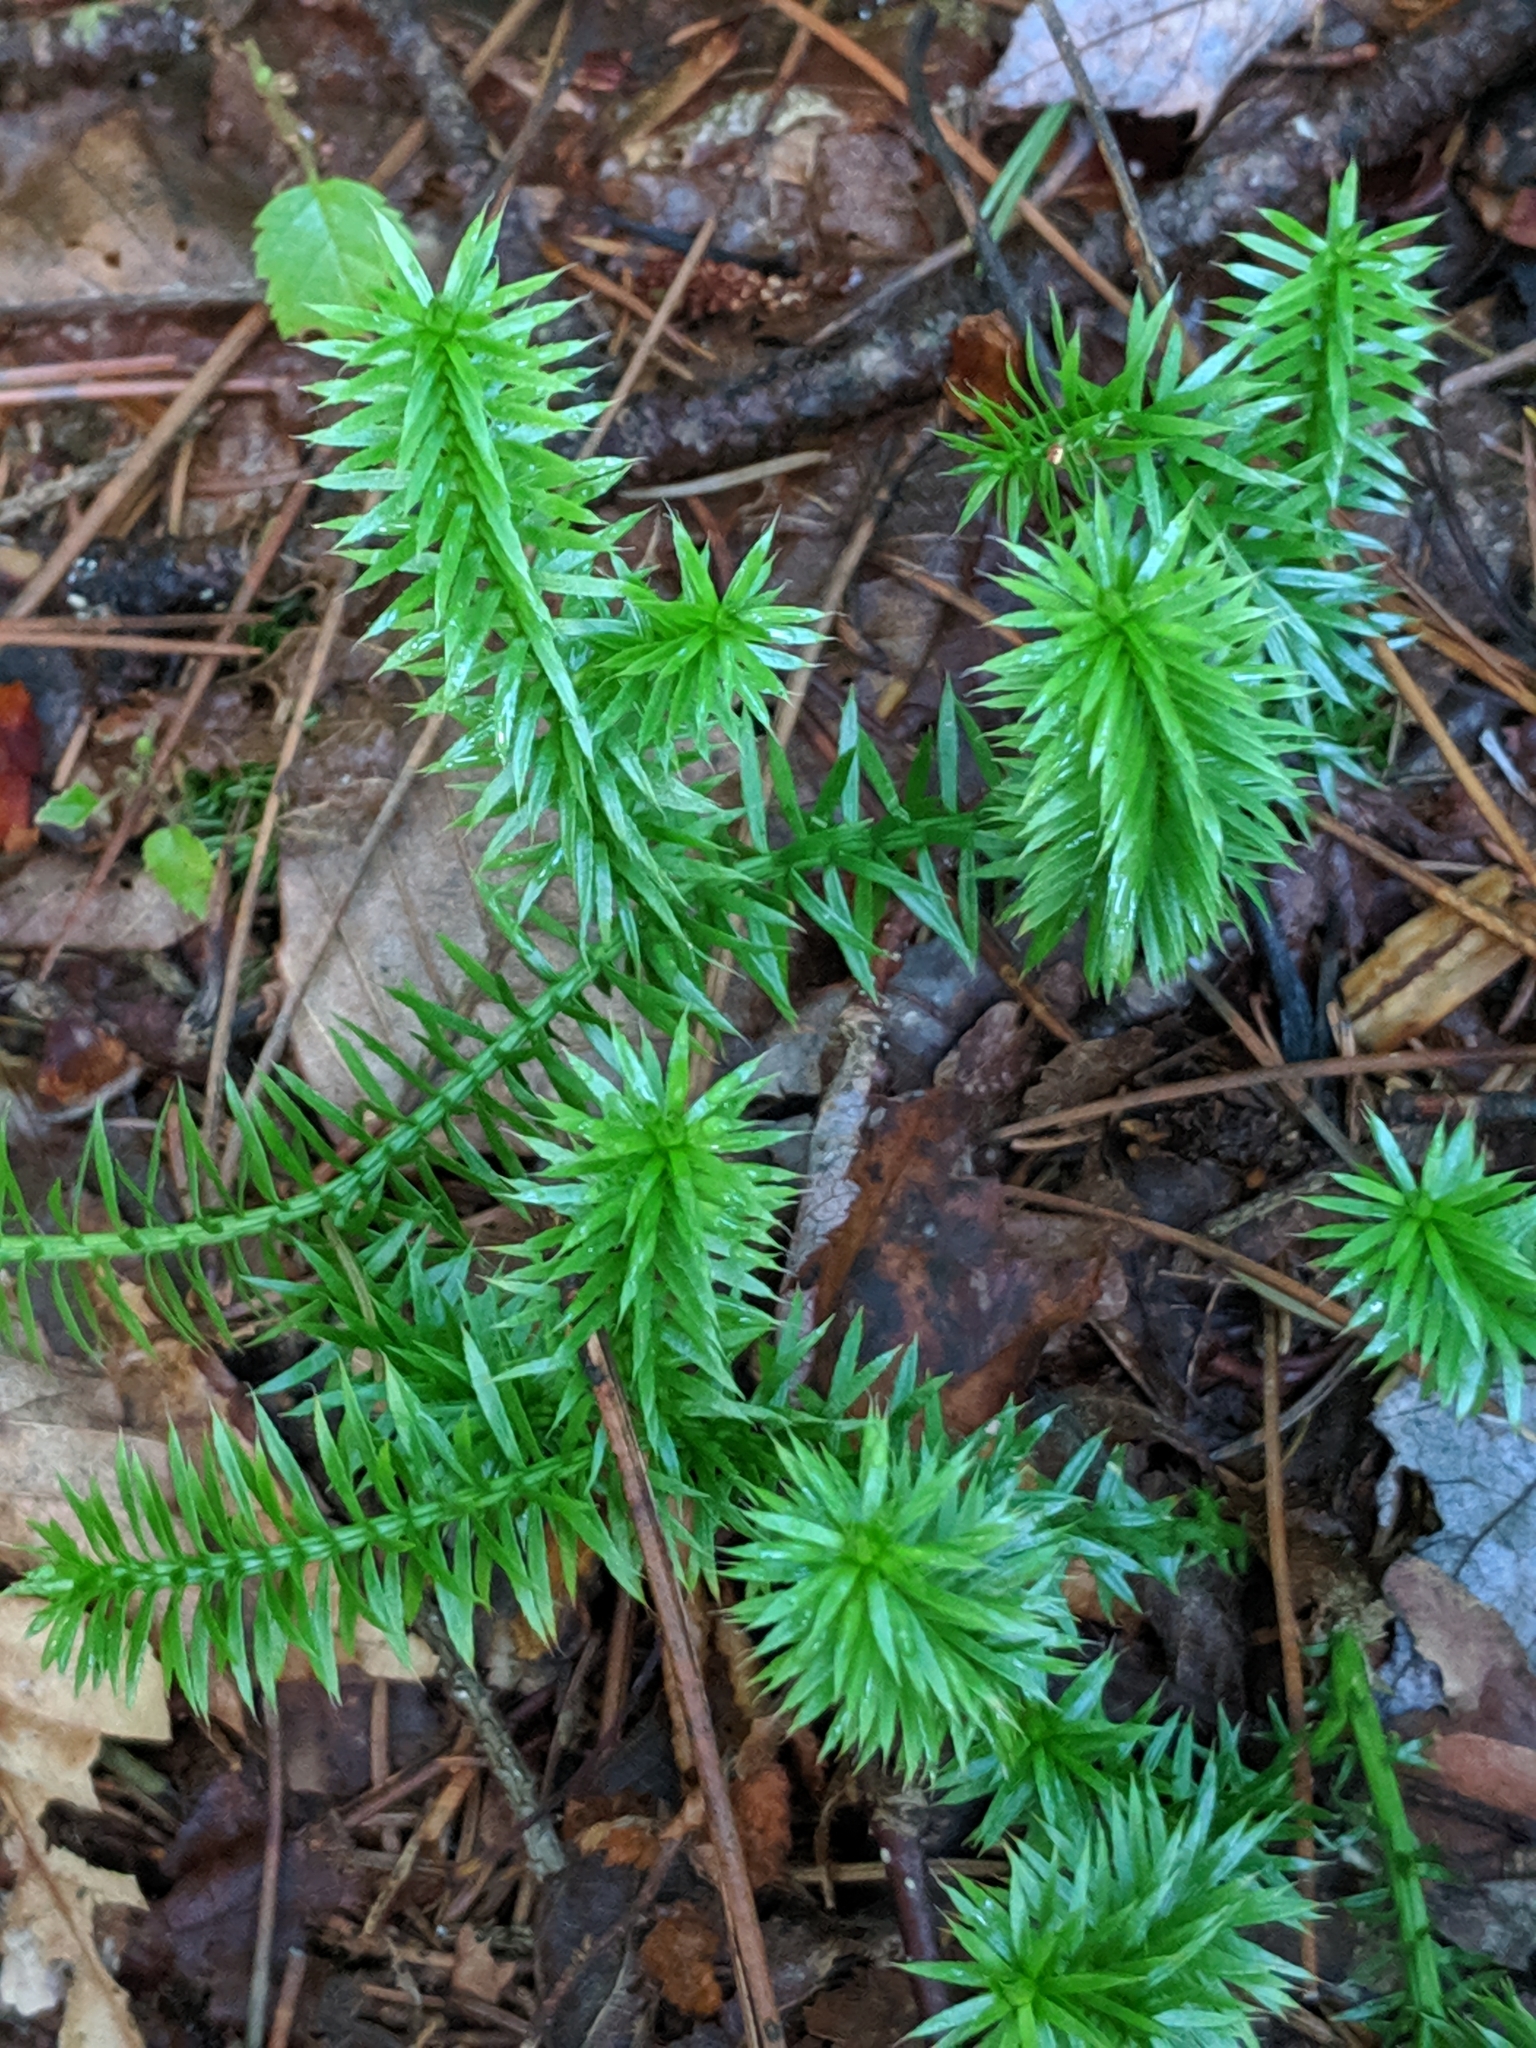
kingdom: Plantae
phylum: Tracheophyta
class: Lycopodiopsida
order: Lycopodiales
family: Lycopodiaceae
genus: Spinulum
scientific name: Spinulum annotinum
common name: Interrupted club-moss
